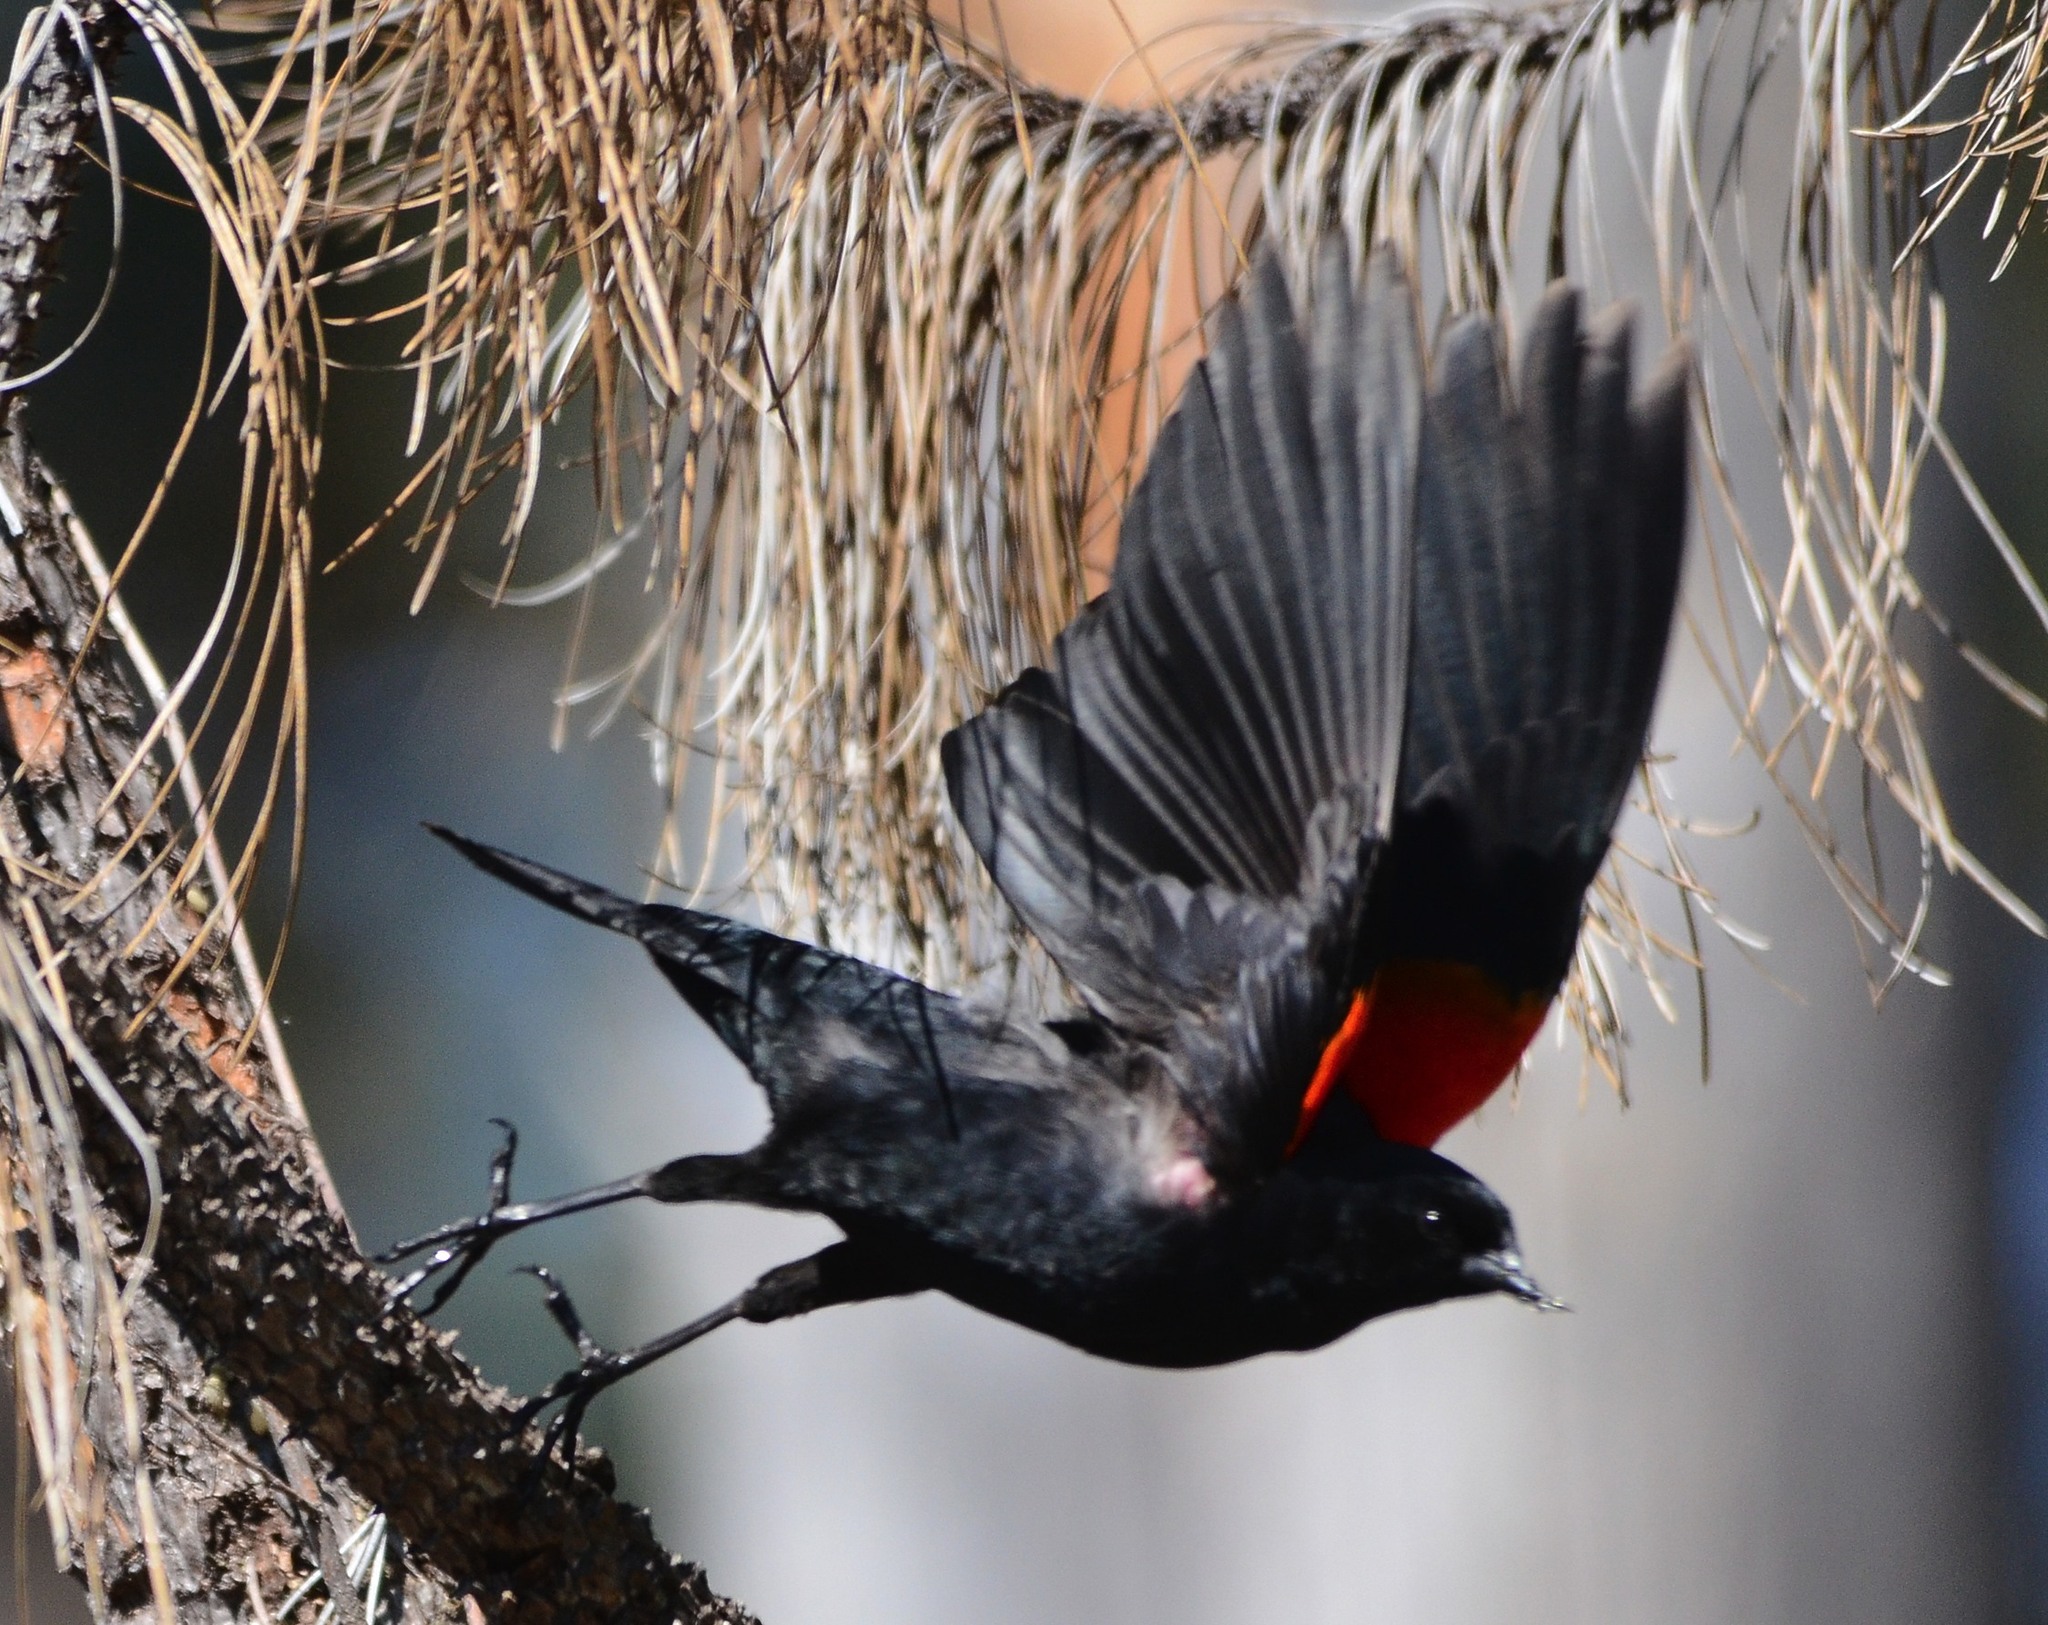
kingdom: Animalia
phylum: Chordata
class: Aves
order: Passeriformes
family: Icteridae
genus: Agelaius
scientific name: Agelaius phoeniceus
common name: Red-winged blackbird
